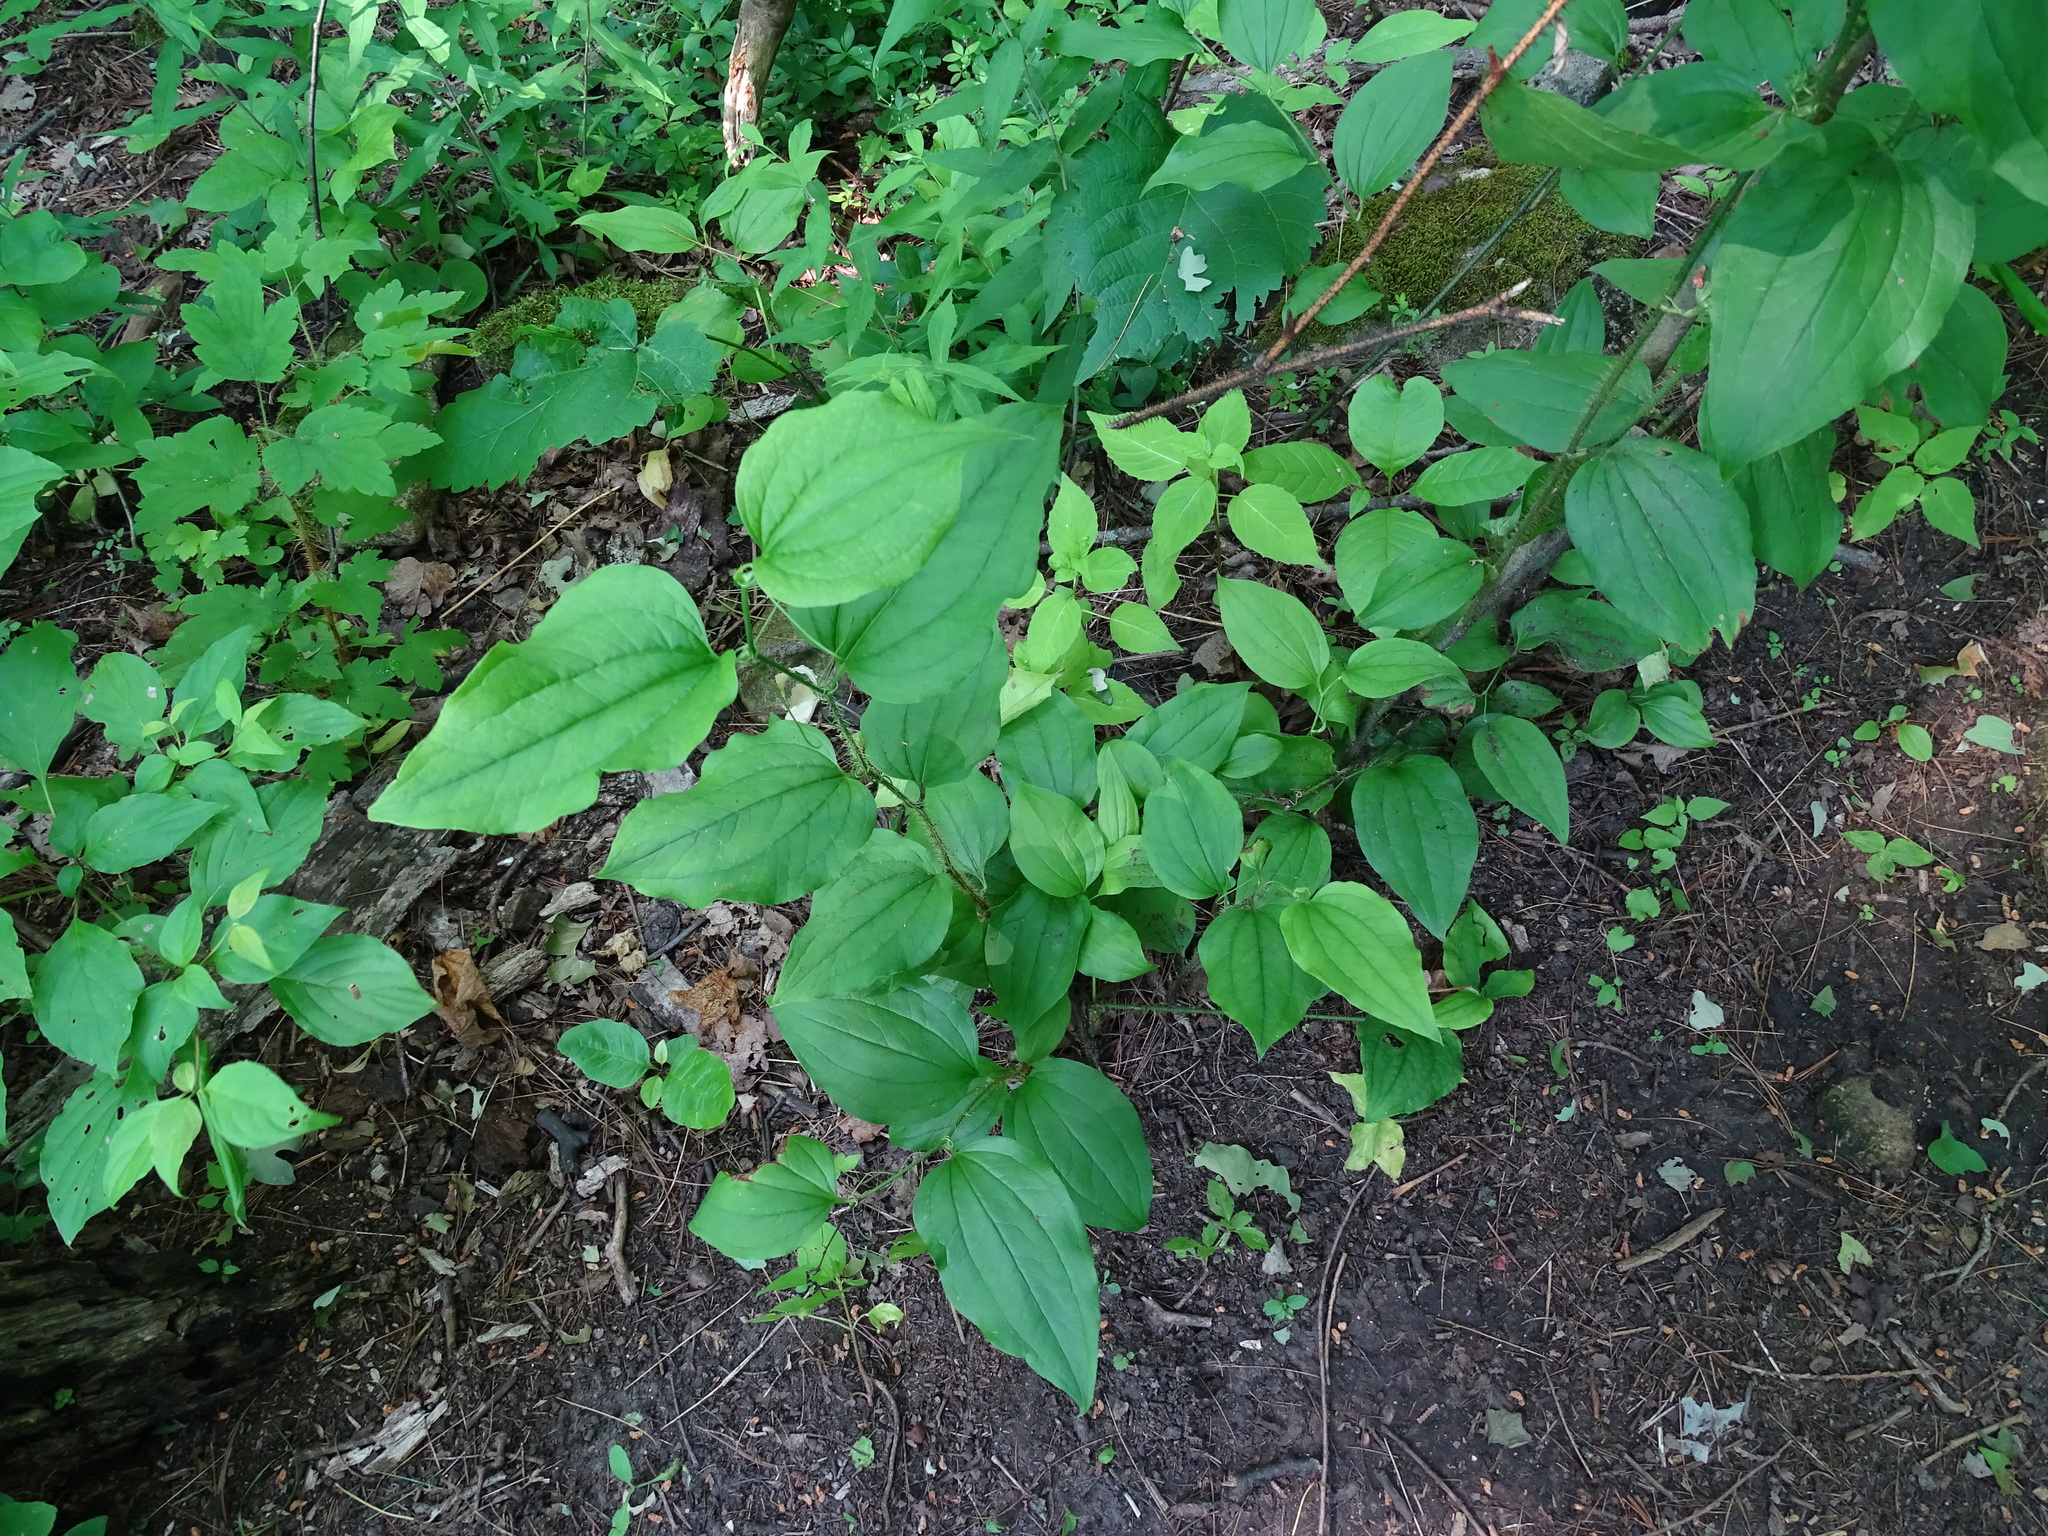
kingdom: Plantae
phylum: Tracheophyta
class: Liliopsida
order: Liliales
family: Smilacaceae
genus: Smilax
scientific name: Smilax tamnoides
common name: Hellfetter
